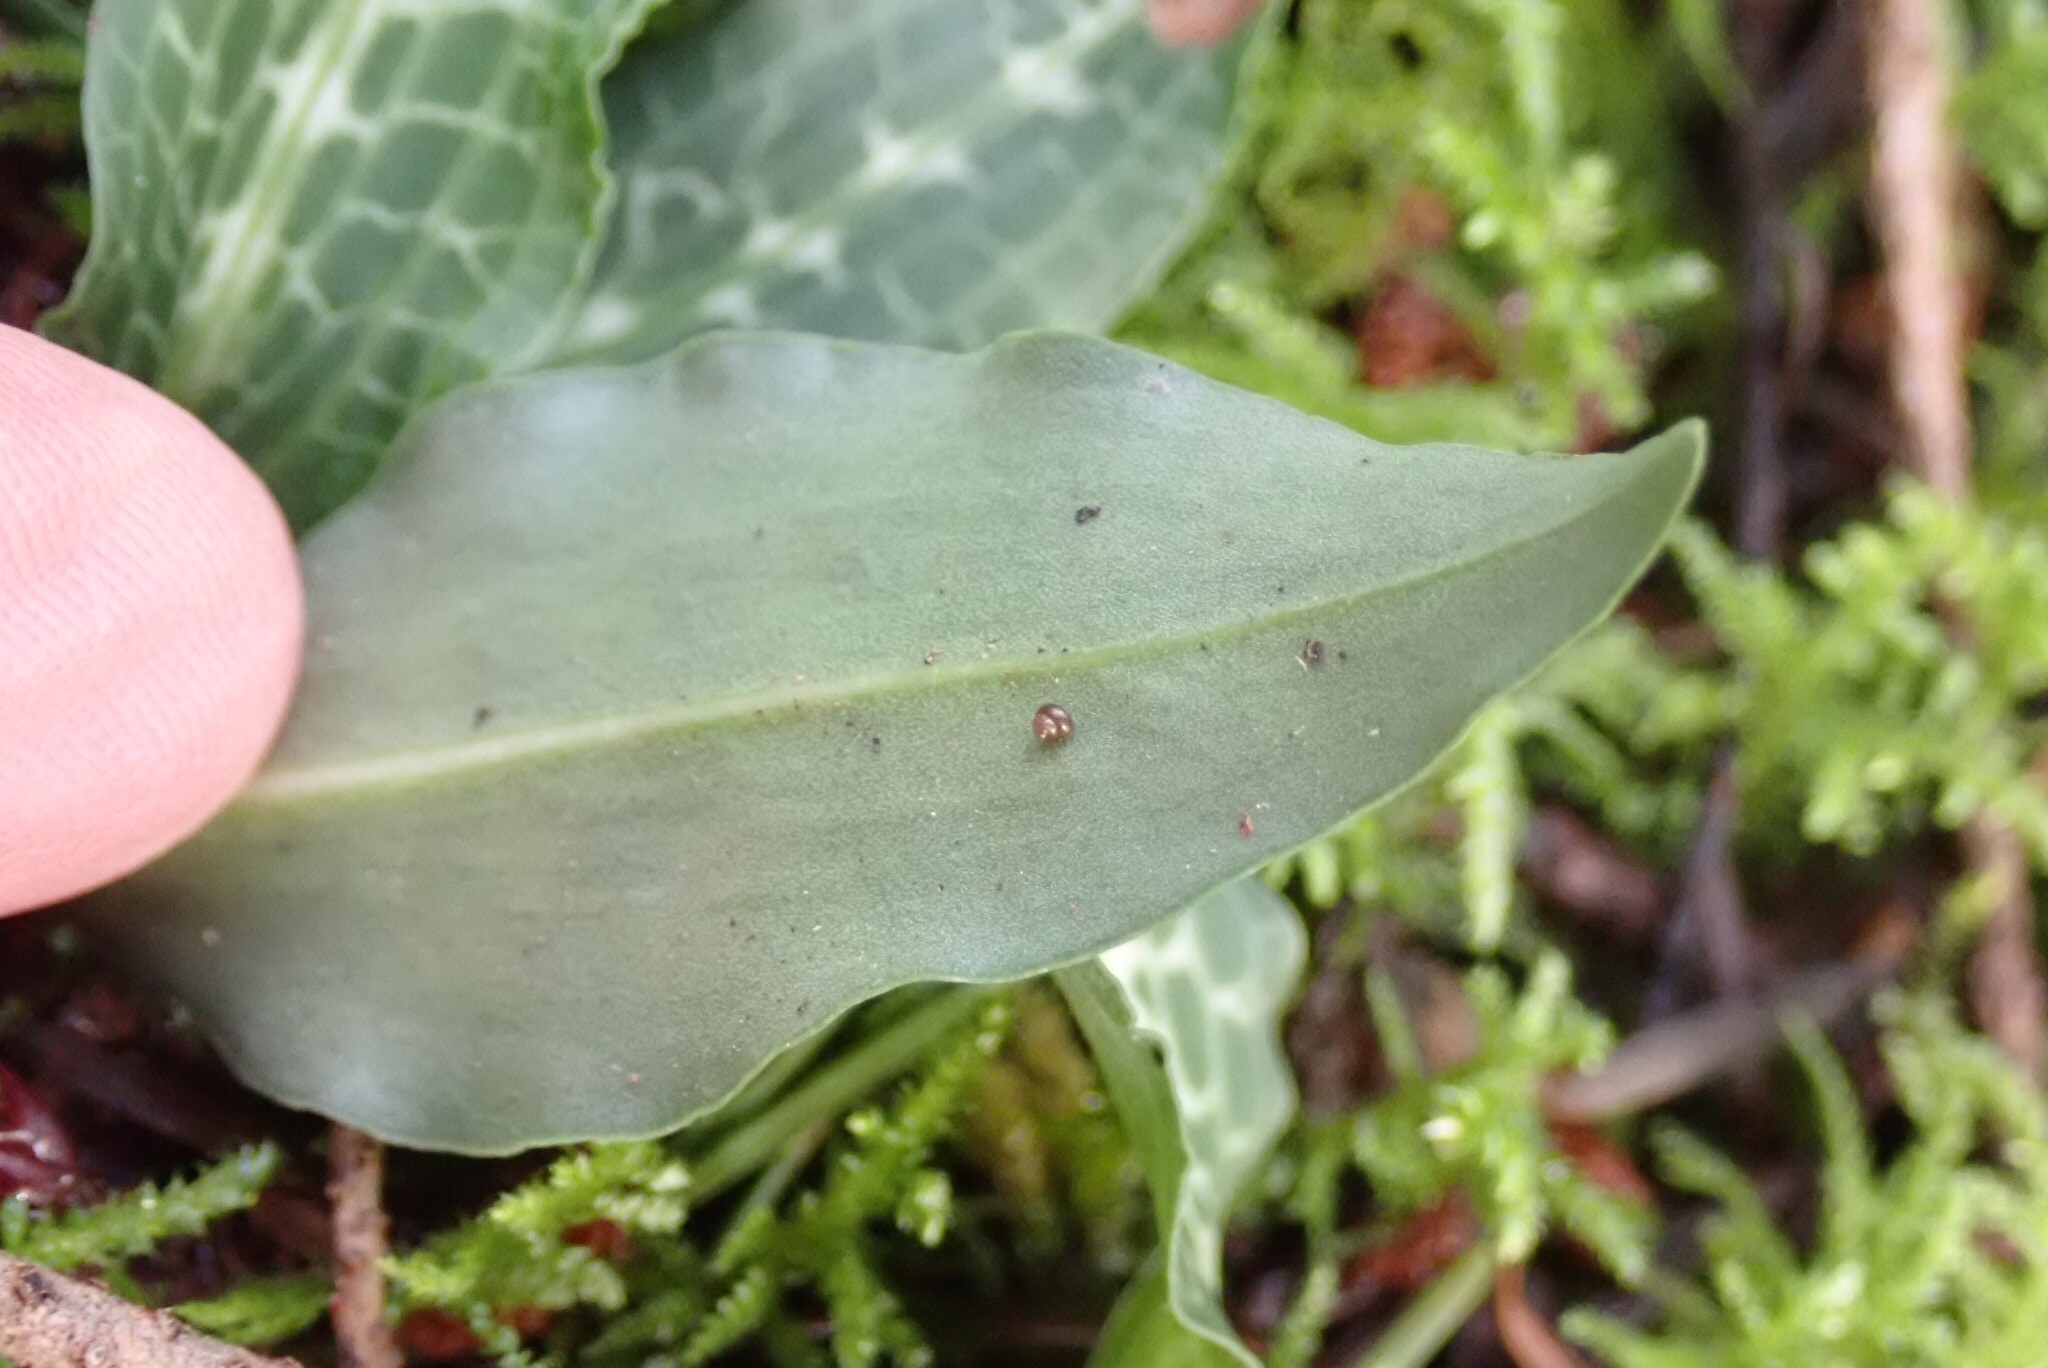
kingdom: Plantae
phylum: Tracheophyta
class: Liliopsida
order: Asparagales
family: Orchidaceae
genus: Goodyera
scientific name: Goodyera oblongifolia
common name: Giant rattlesnake-plantain
